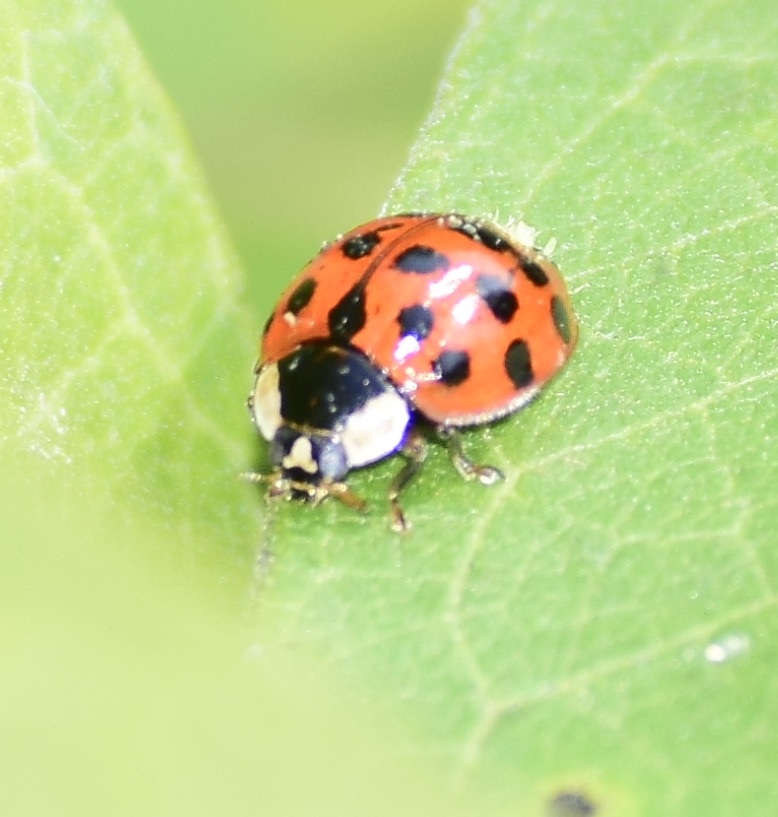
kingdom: Animalia
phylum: Arthropoda
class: Insecta
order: Coleoptera
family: Coccinellidae
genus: Harmonia
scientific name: Harmonia axyridis
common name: Harlequin ladybird
